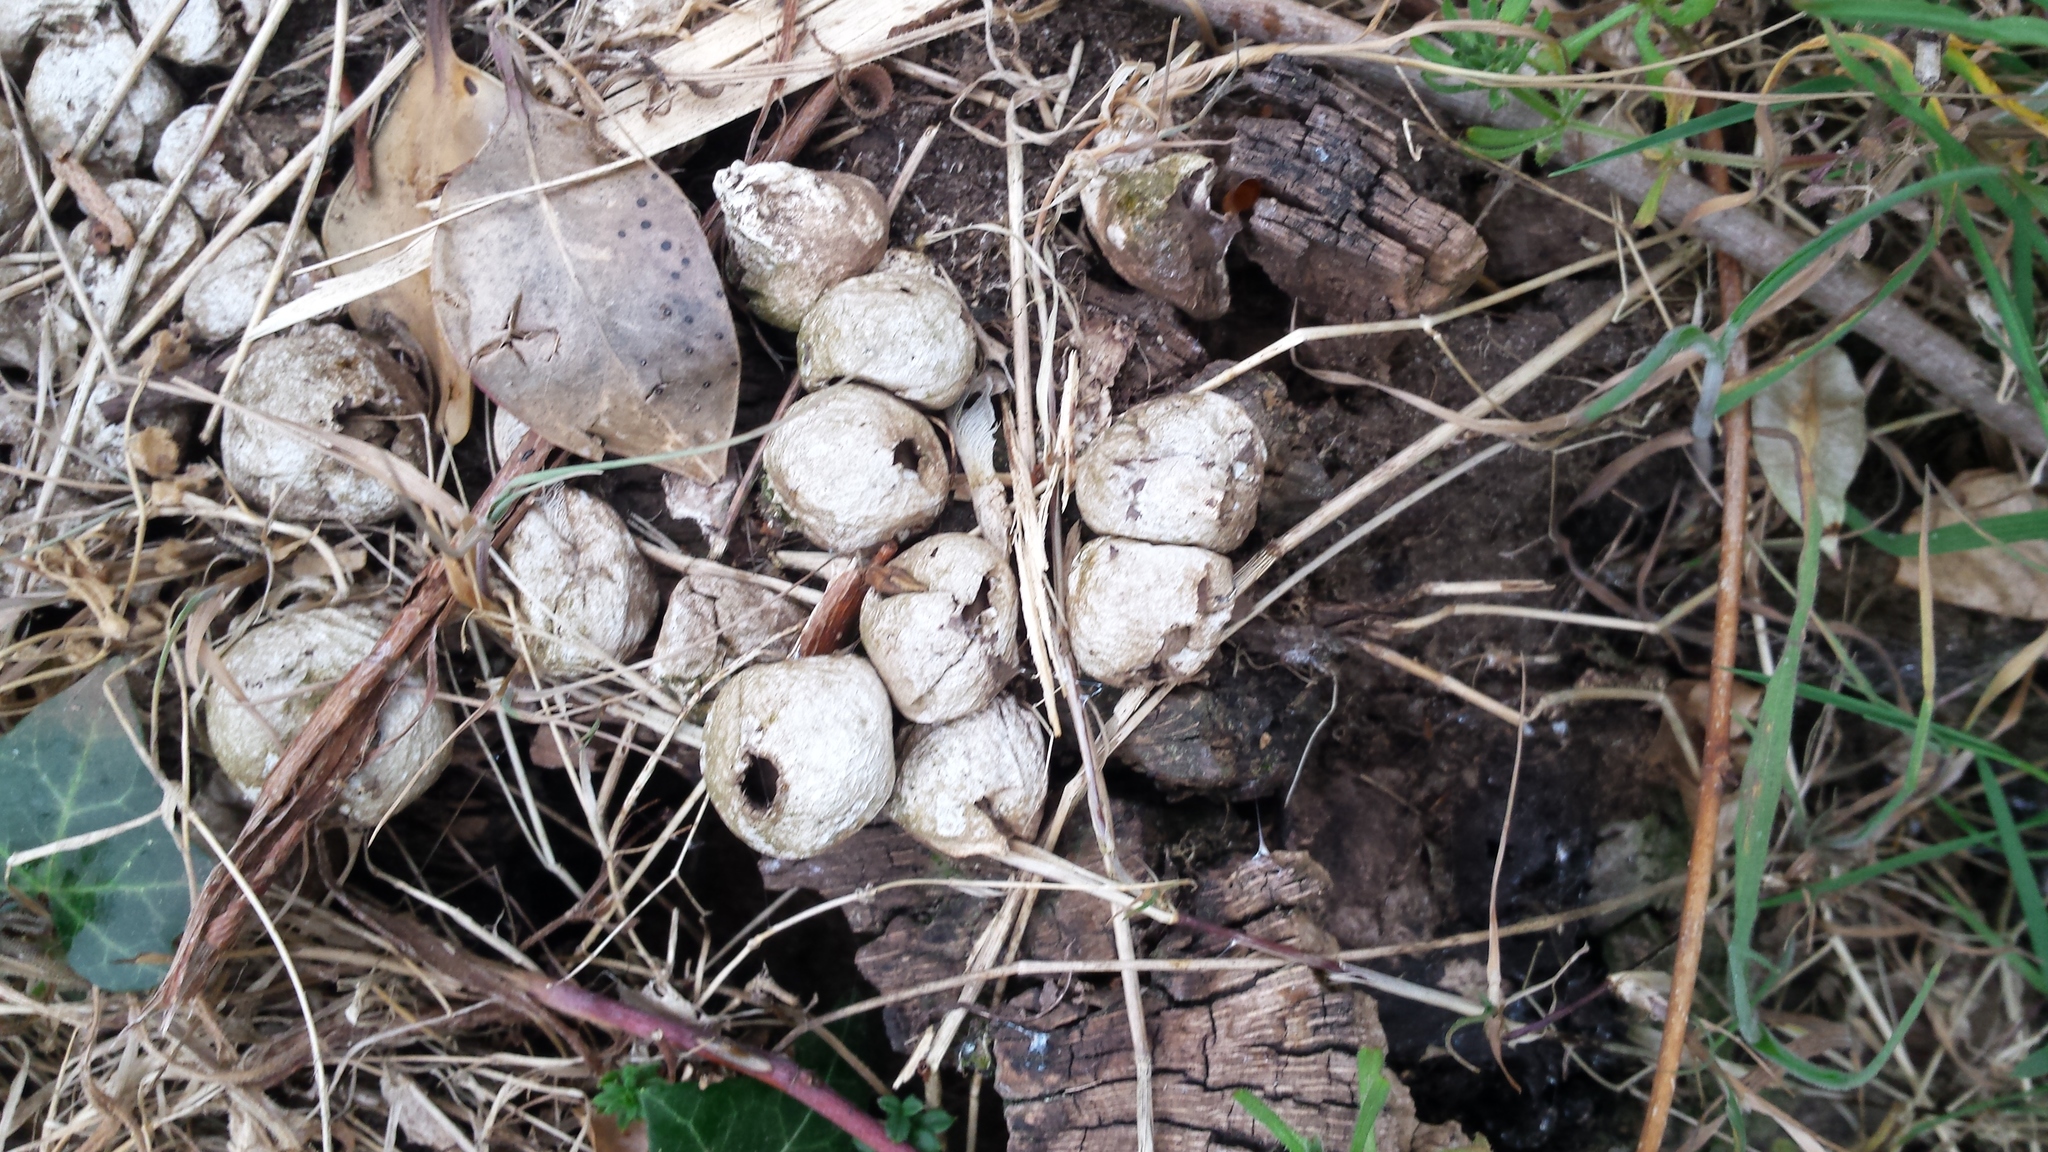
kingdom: Fungi
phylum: Basidiomycota
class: Agaricomycetes
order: Agaricales
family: Lycoperdaceae
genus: Apioperdon
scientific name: Apioperdon pyriforme
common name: Pear-shaped puffball
